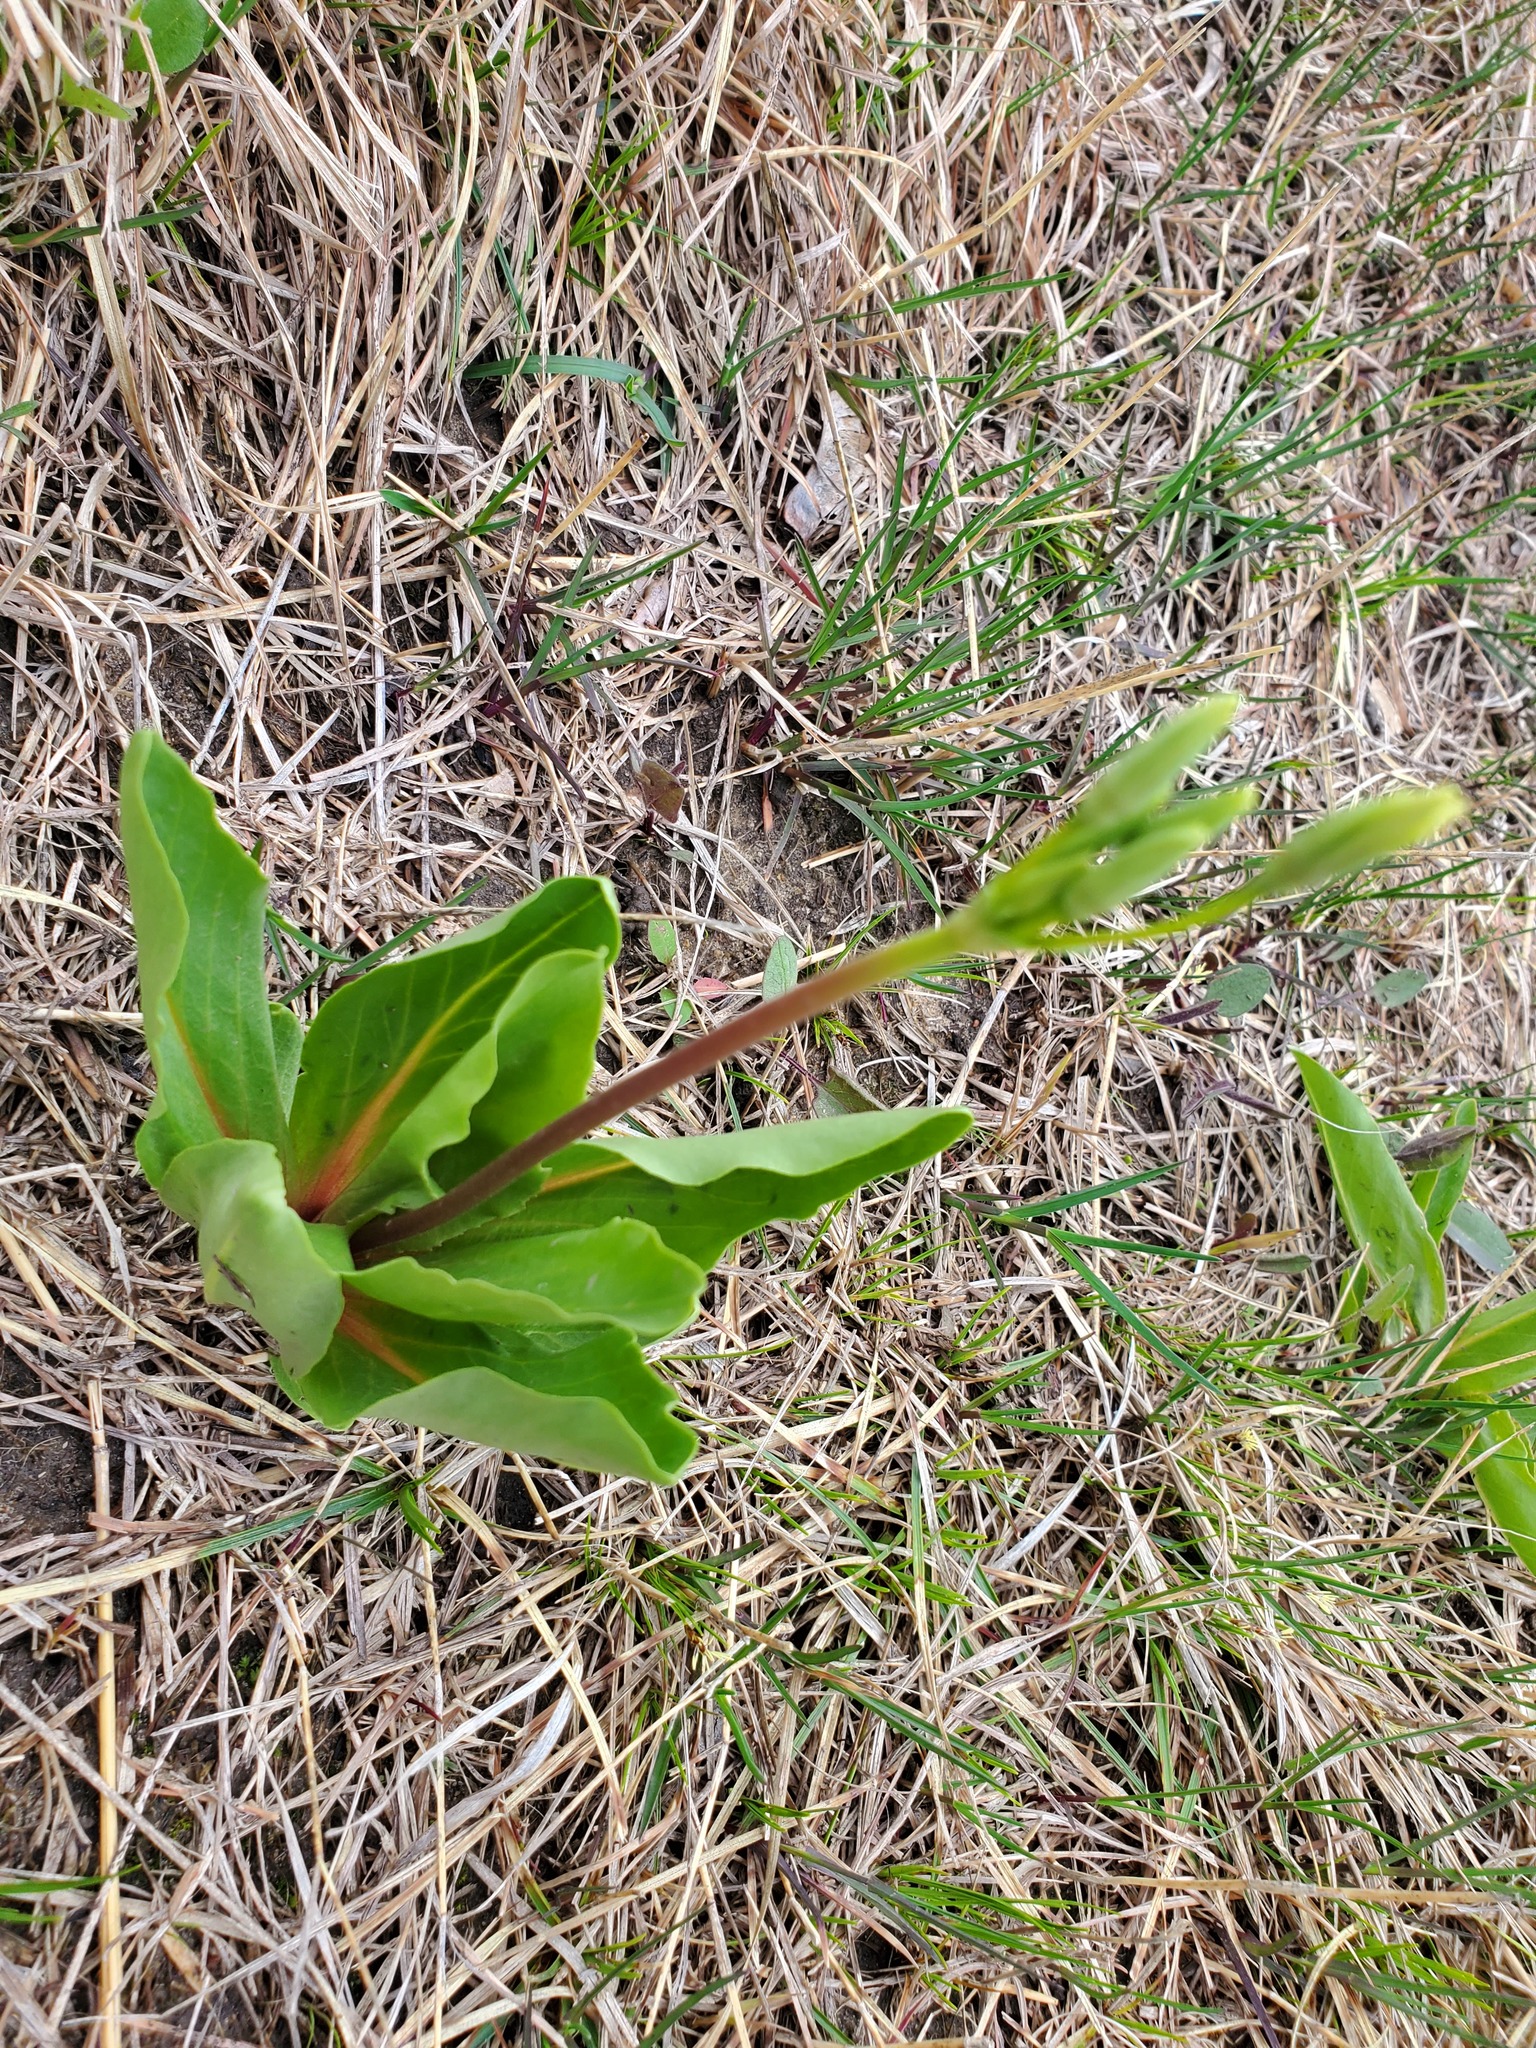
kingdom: Plantae
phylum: Tracheophyta
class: Magnoliopsida
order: Ericales
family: Primulaceae
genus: Dodecatheon
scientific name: Dodecatheon meadia
